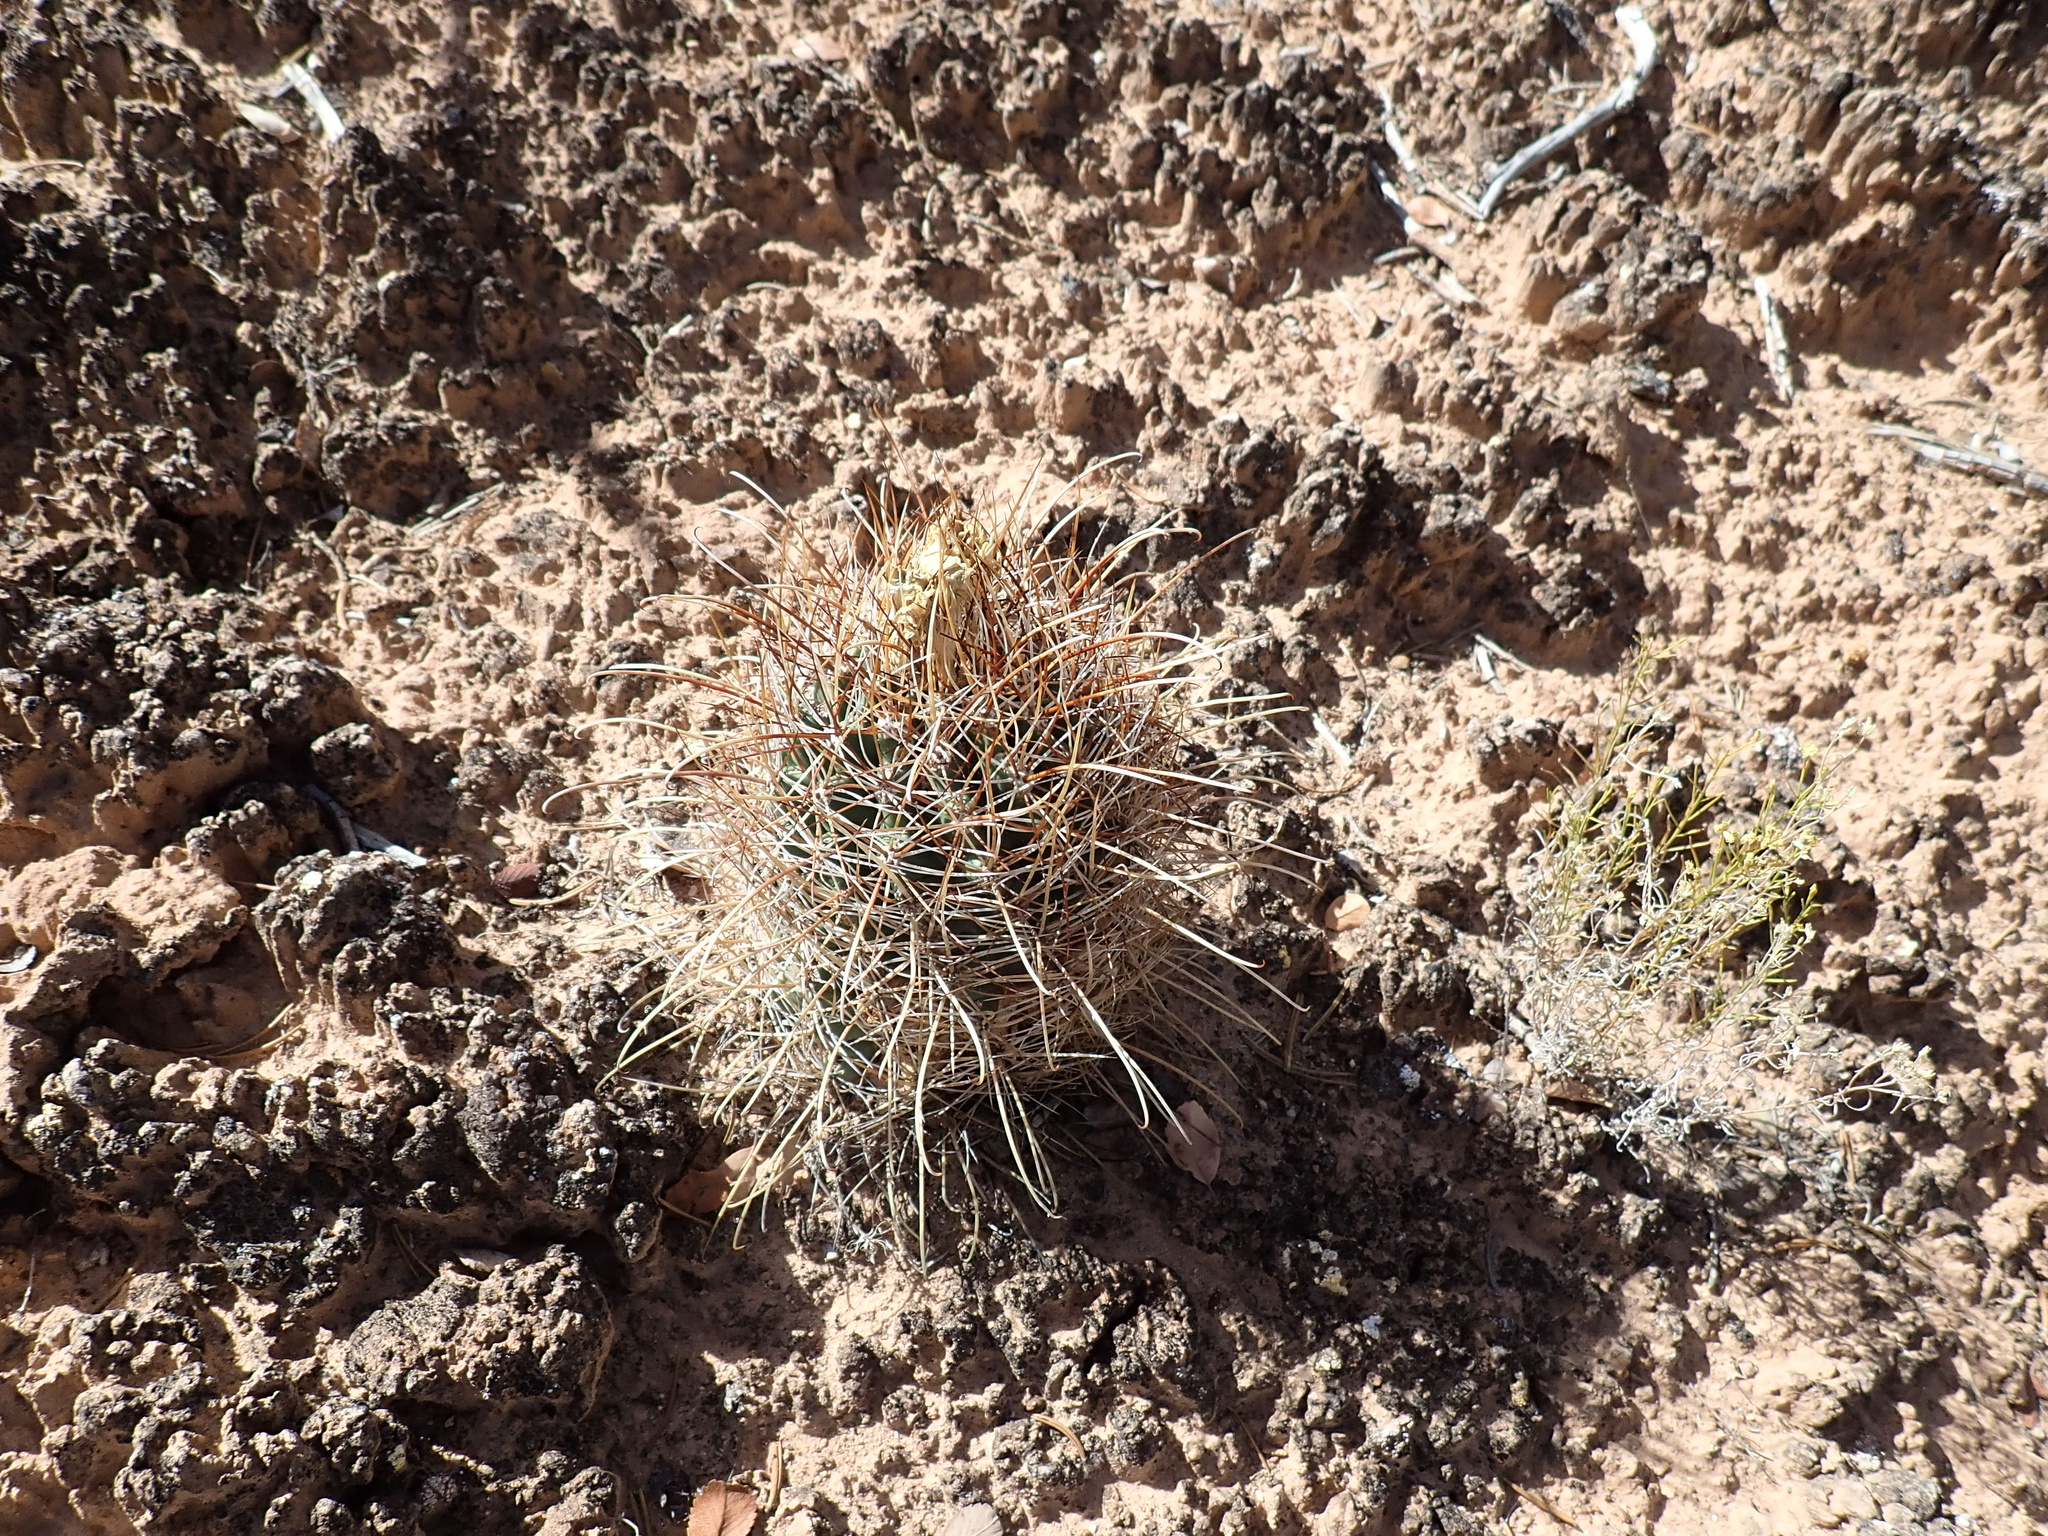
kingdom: Plantae
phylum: Tracheophyta
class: Magnoliopsida
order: Caryophyllales
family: Cactaceae
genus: Sclerocactus
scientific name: Sclerocactus parviflorus
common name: Small-flower fishhook cactus
